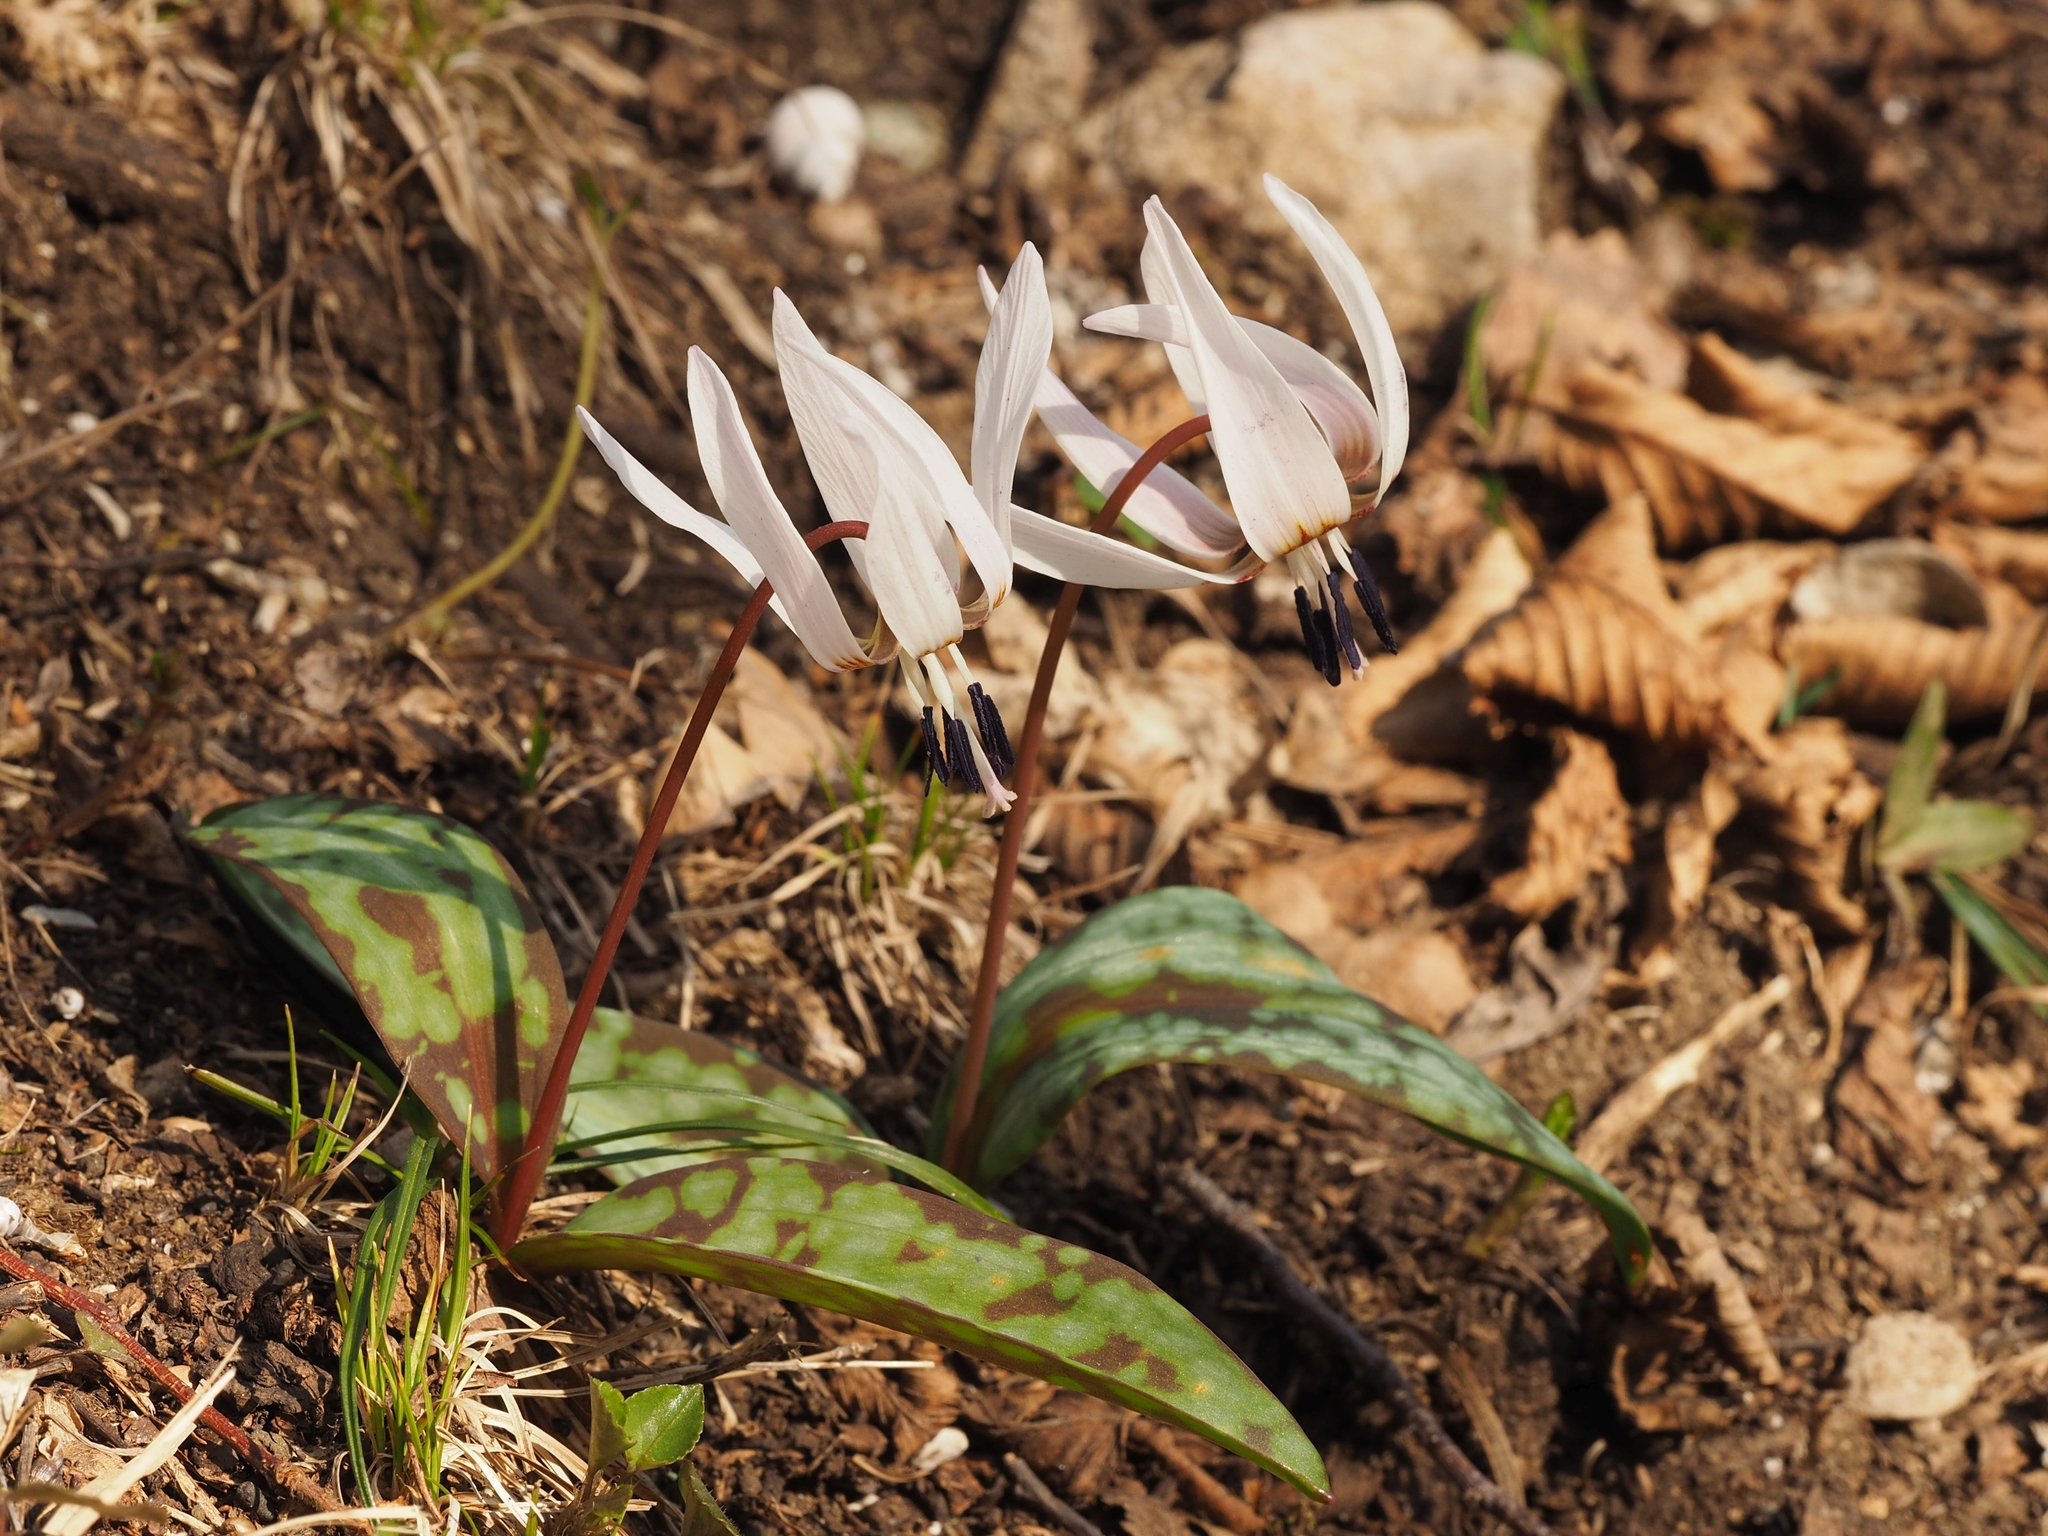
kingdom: Plantae
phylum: Tracheophyta
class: Liliopsida
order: Liliales
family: Liliaceae
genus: Erythronium
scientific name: Erythronium dens-canis
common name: Dog's-tooth-violet
